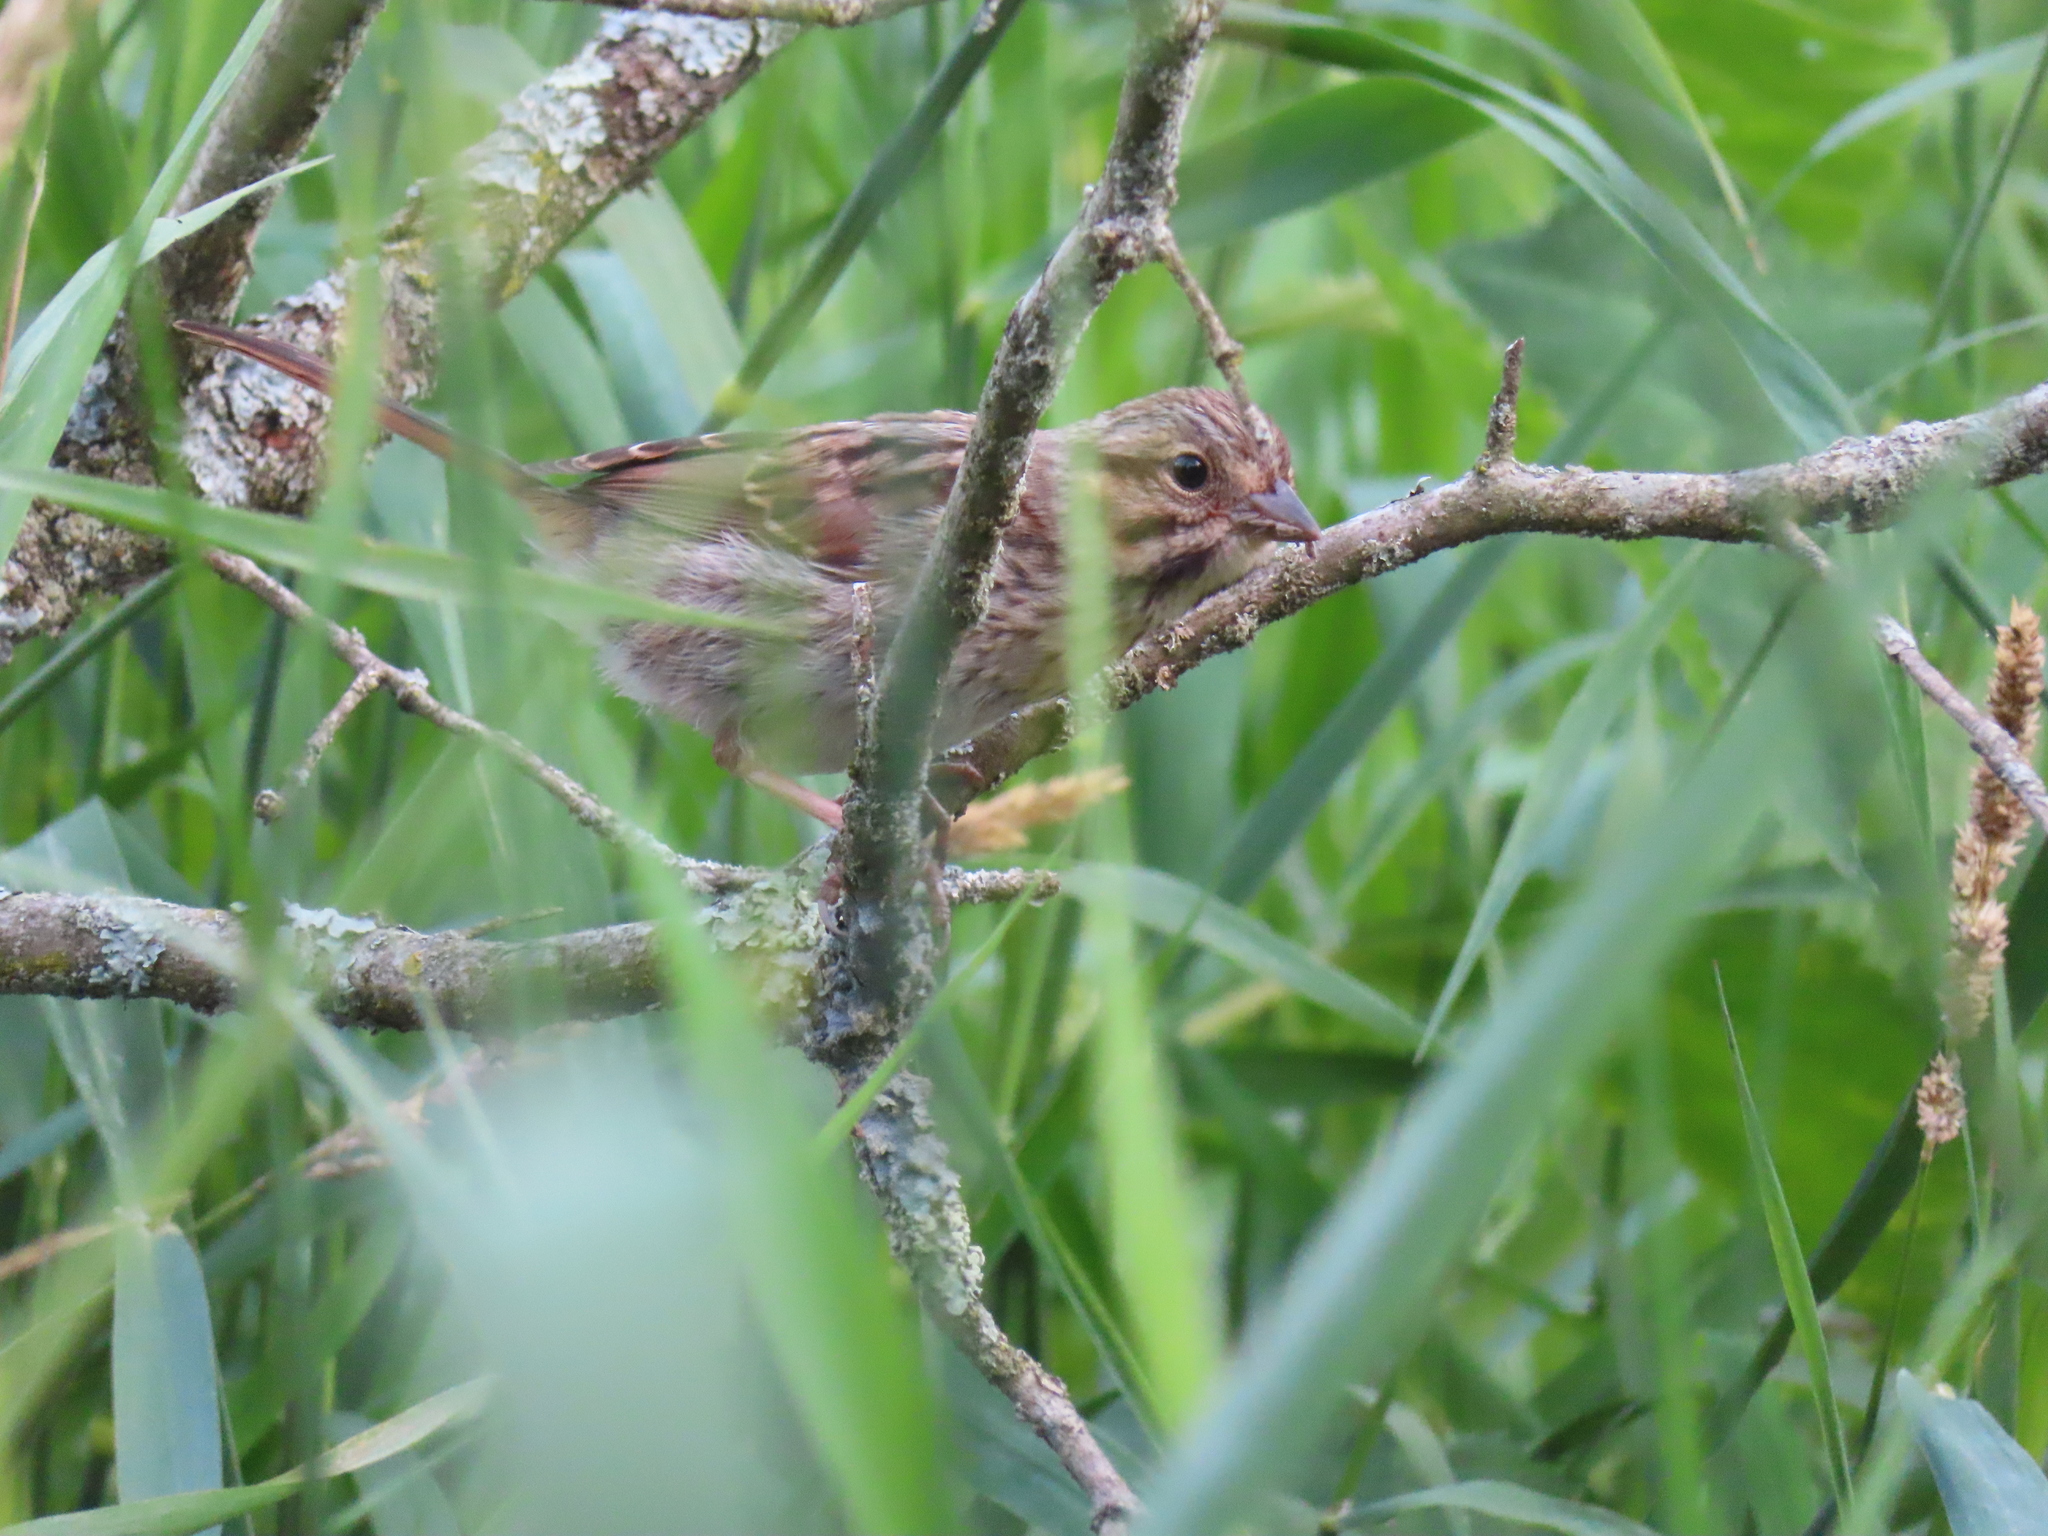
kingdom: Animalia
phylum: Chordata
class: Aves
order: Passeriformes
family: Passerellidae
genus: Melospiza
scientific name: Melospiza melodia
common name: Song sparrow
